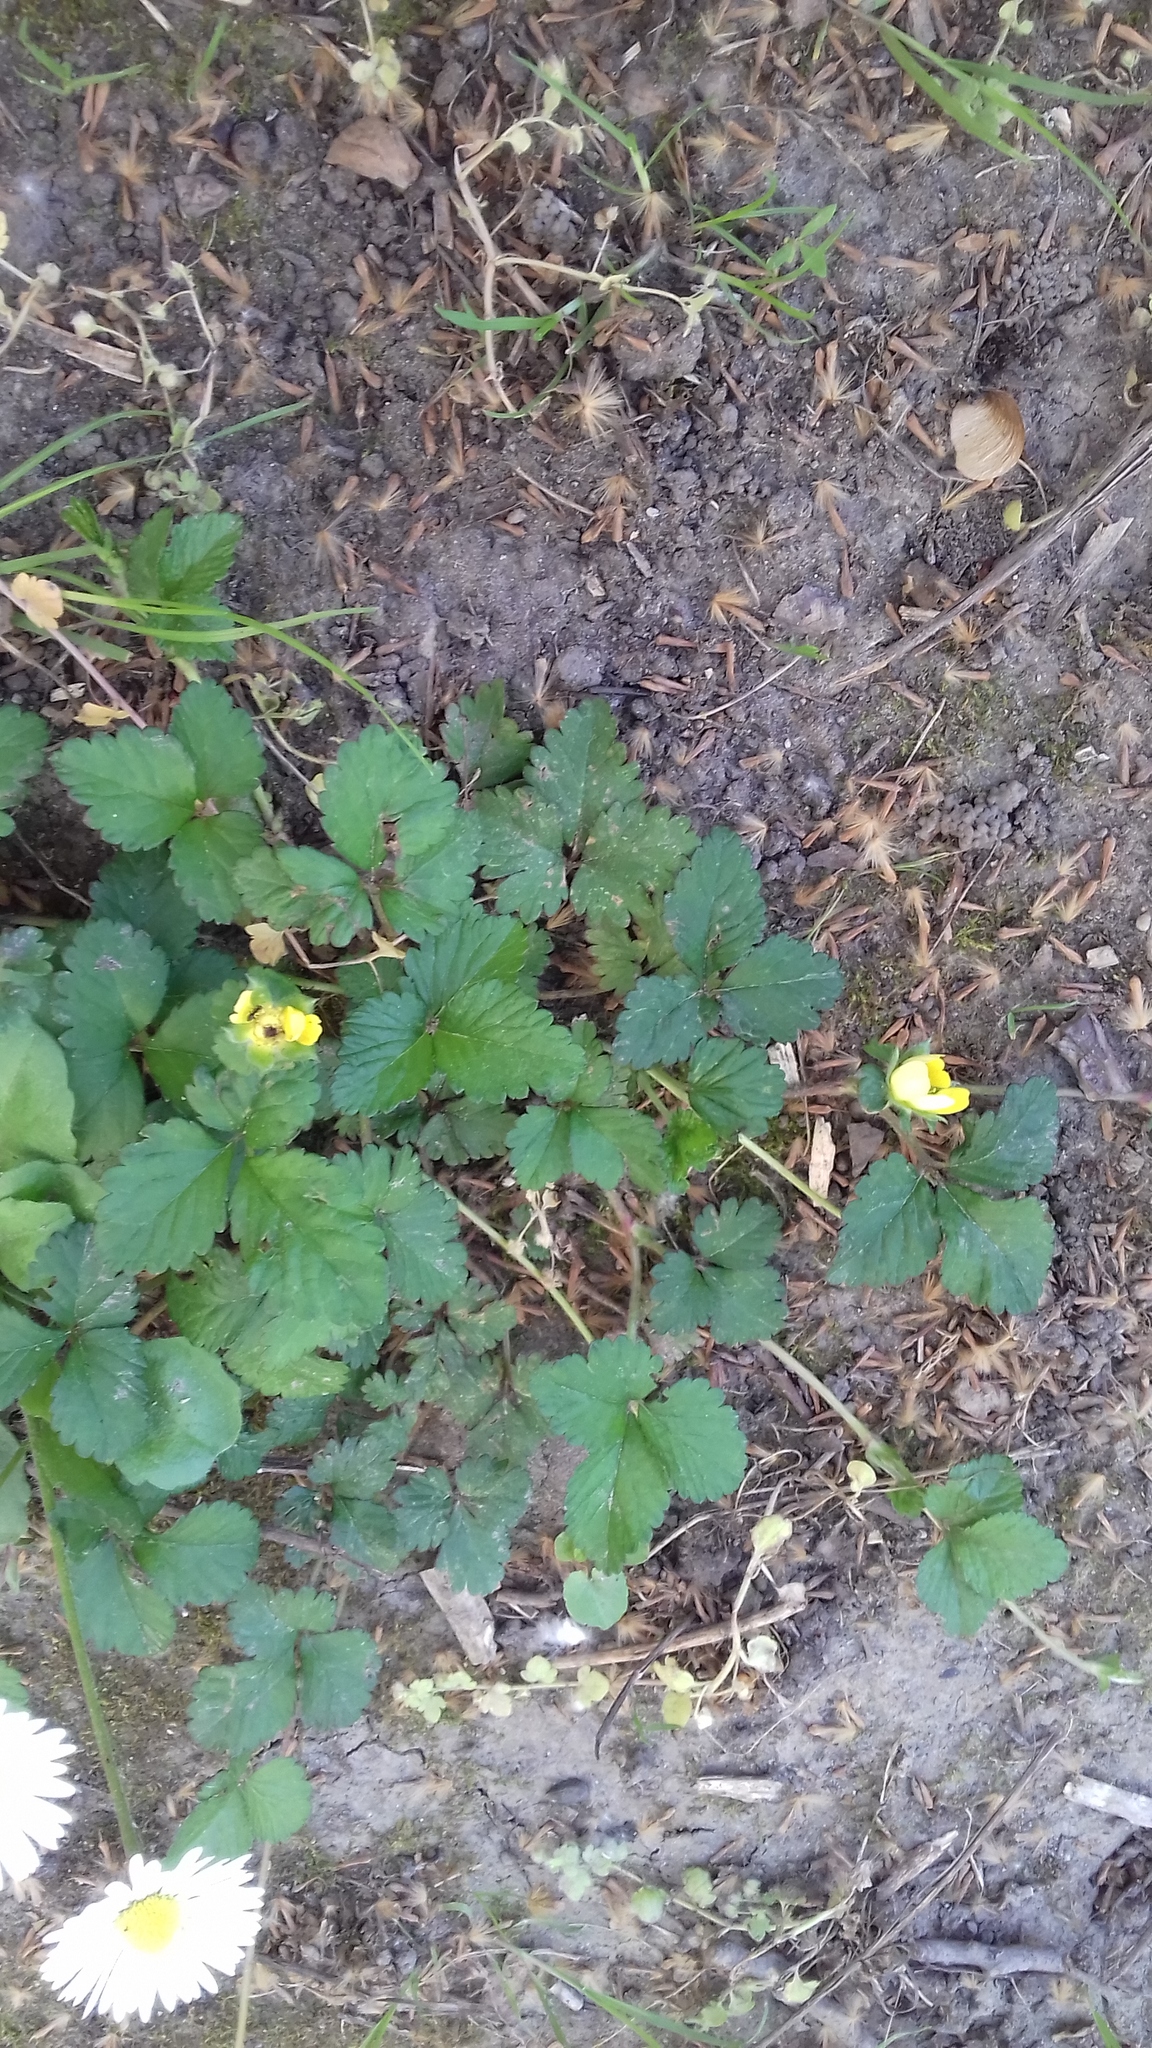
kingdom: Plantae
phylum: Tracheophyta
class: Magnoliopsida
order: Rosales
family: Rosaceae
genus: Potentilla
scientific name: Potentilla indica
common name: Yellow-flowered strawberry
